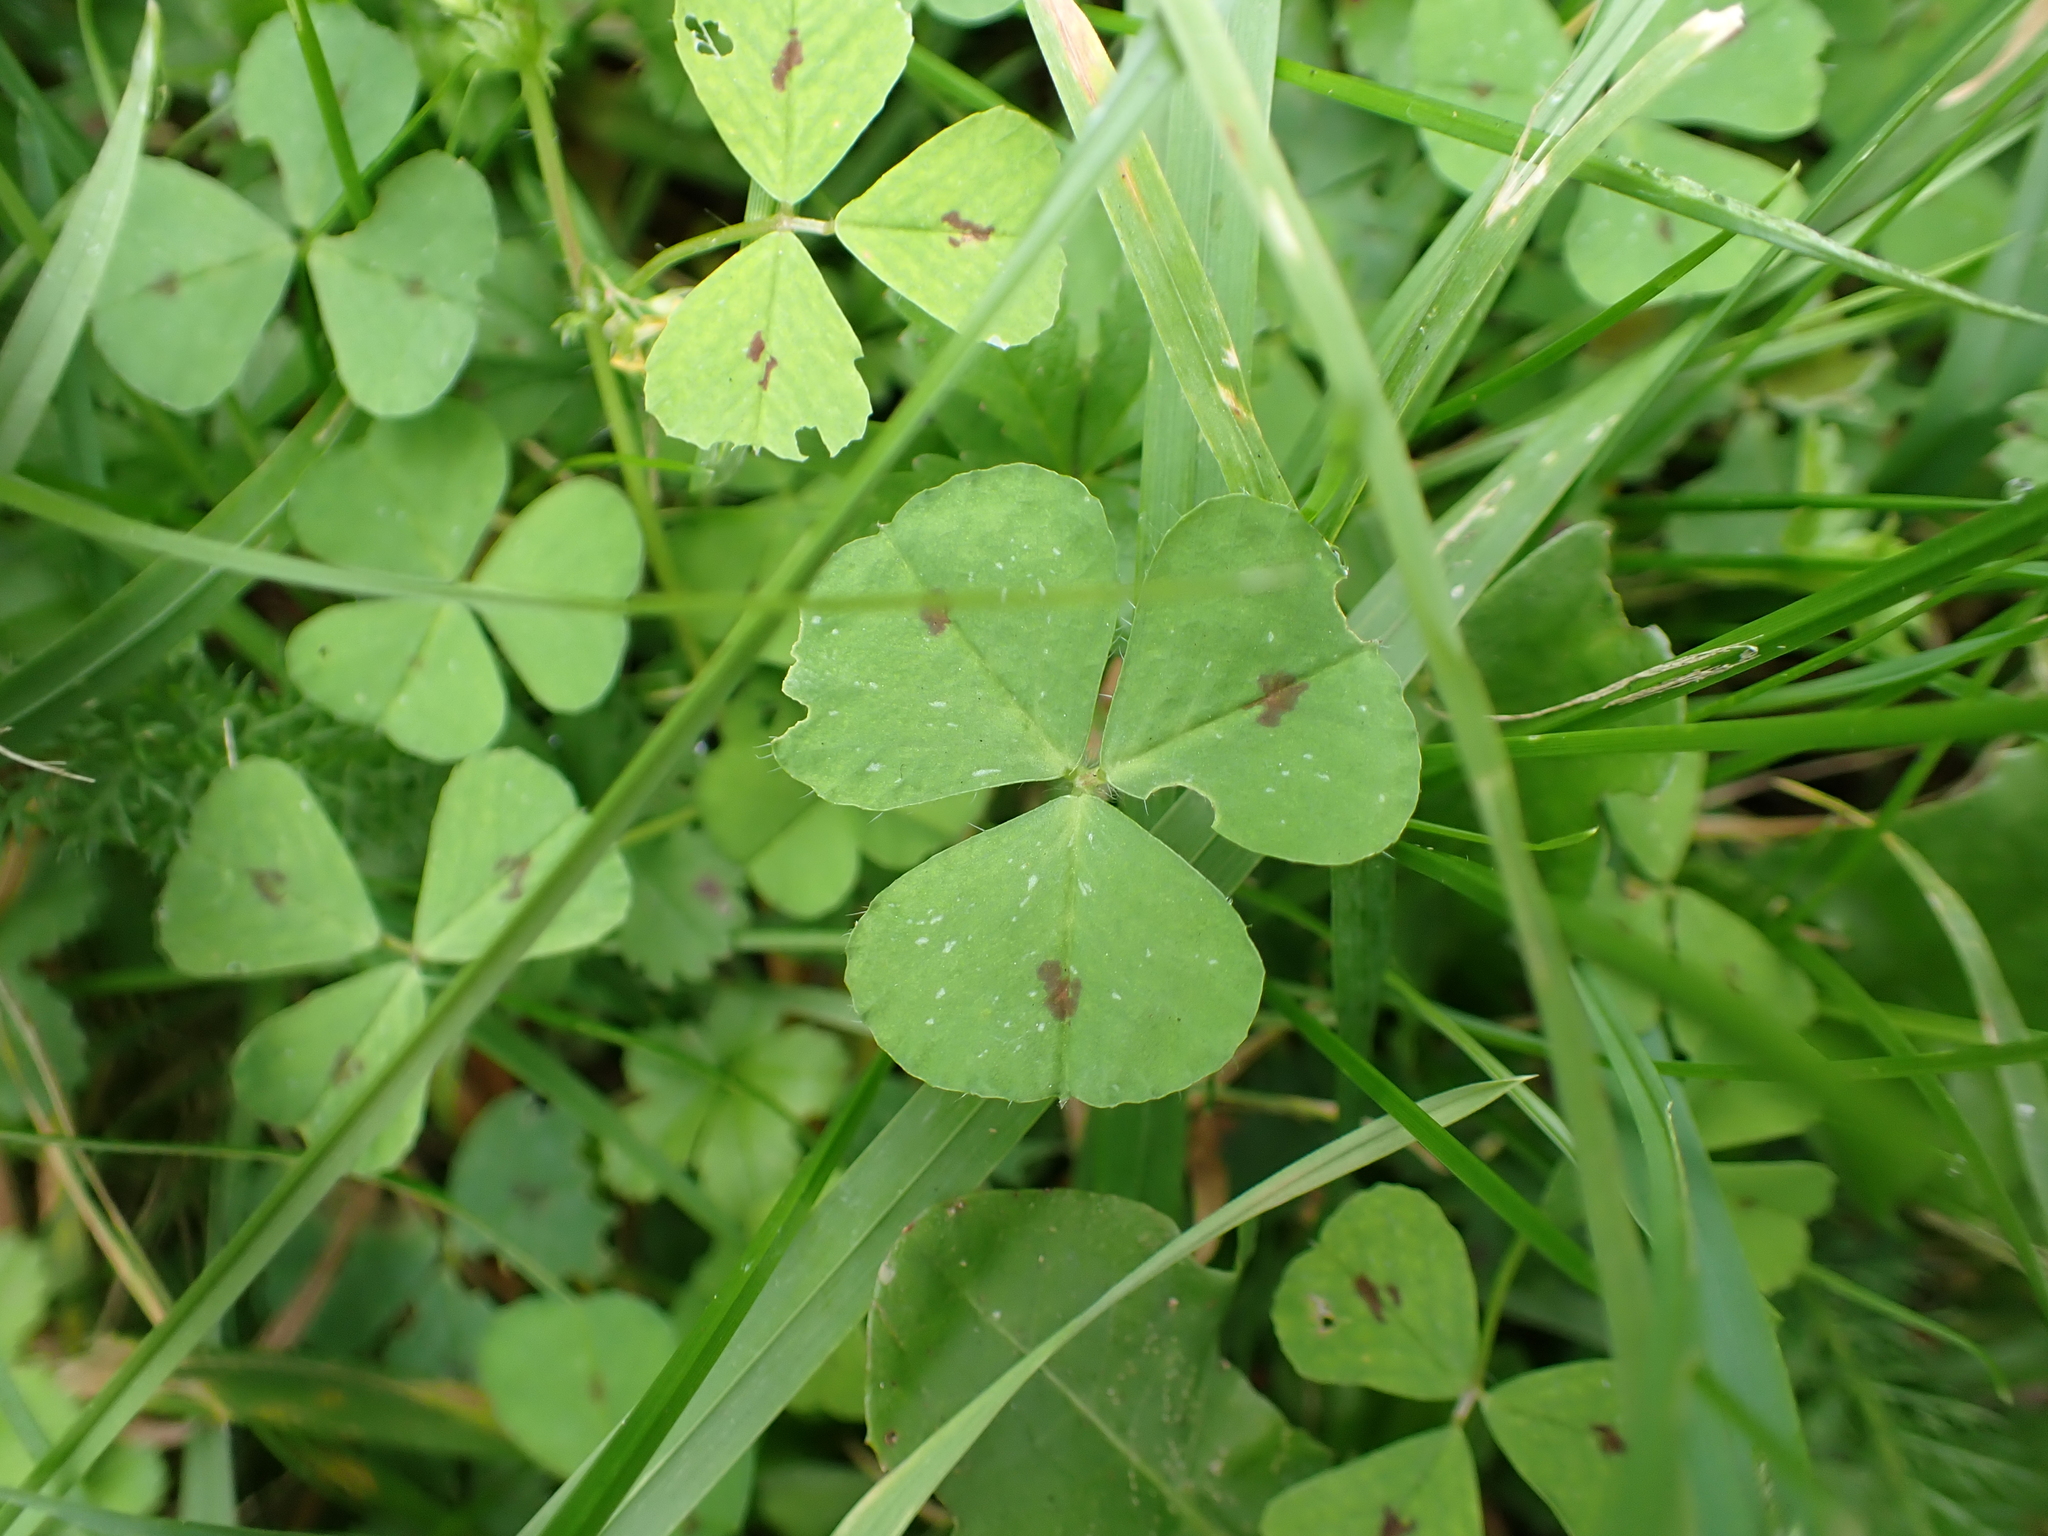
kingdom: Plantae
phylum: Tracheophyta
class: Magnoliopsida
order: Fabales
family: Fabaceae
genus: Medicago
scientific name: Medicago arabica
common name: Spotted medick
